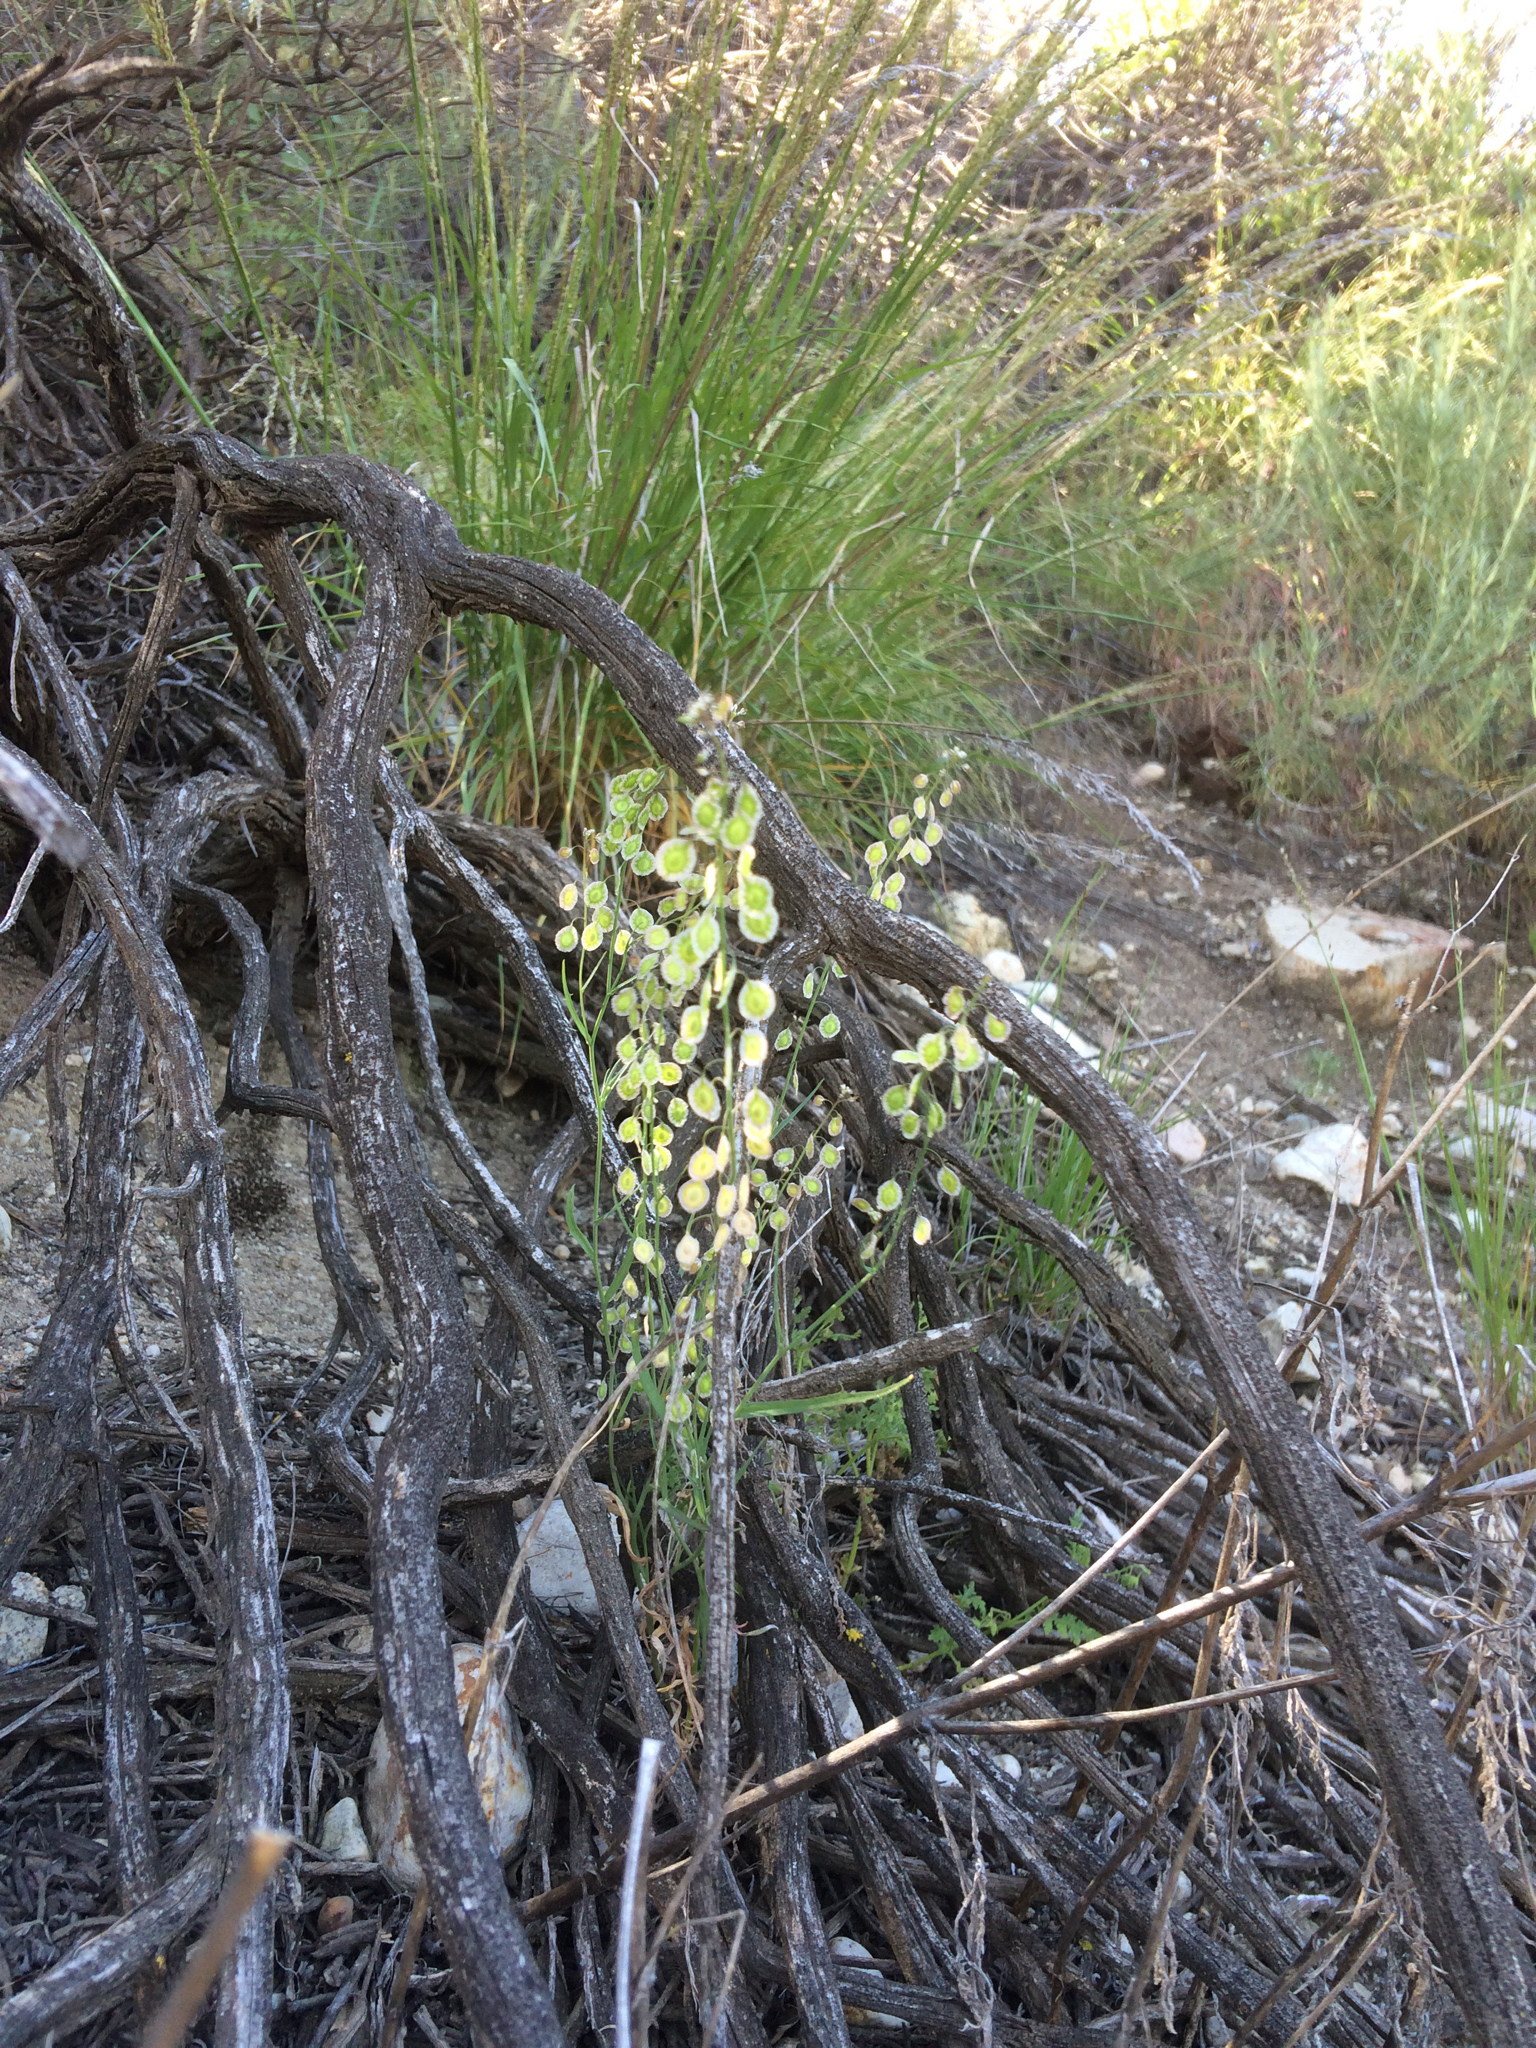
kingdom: Plantae
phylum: Tracheophyta
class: Magnoliopsida
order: Brassicales
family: Brassicaceae
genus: Thysanocarpus
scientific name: Thysanocarpus laciniatus
